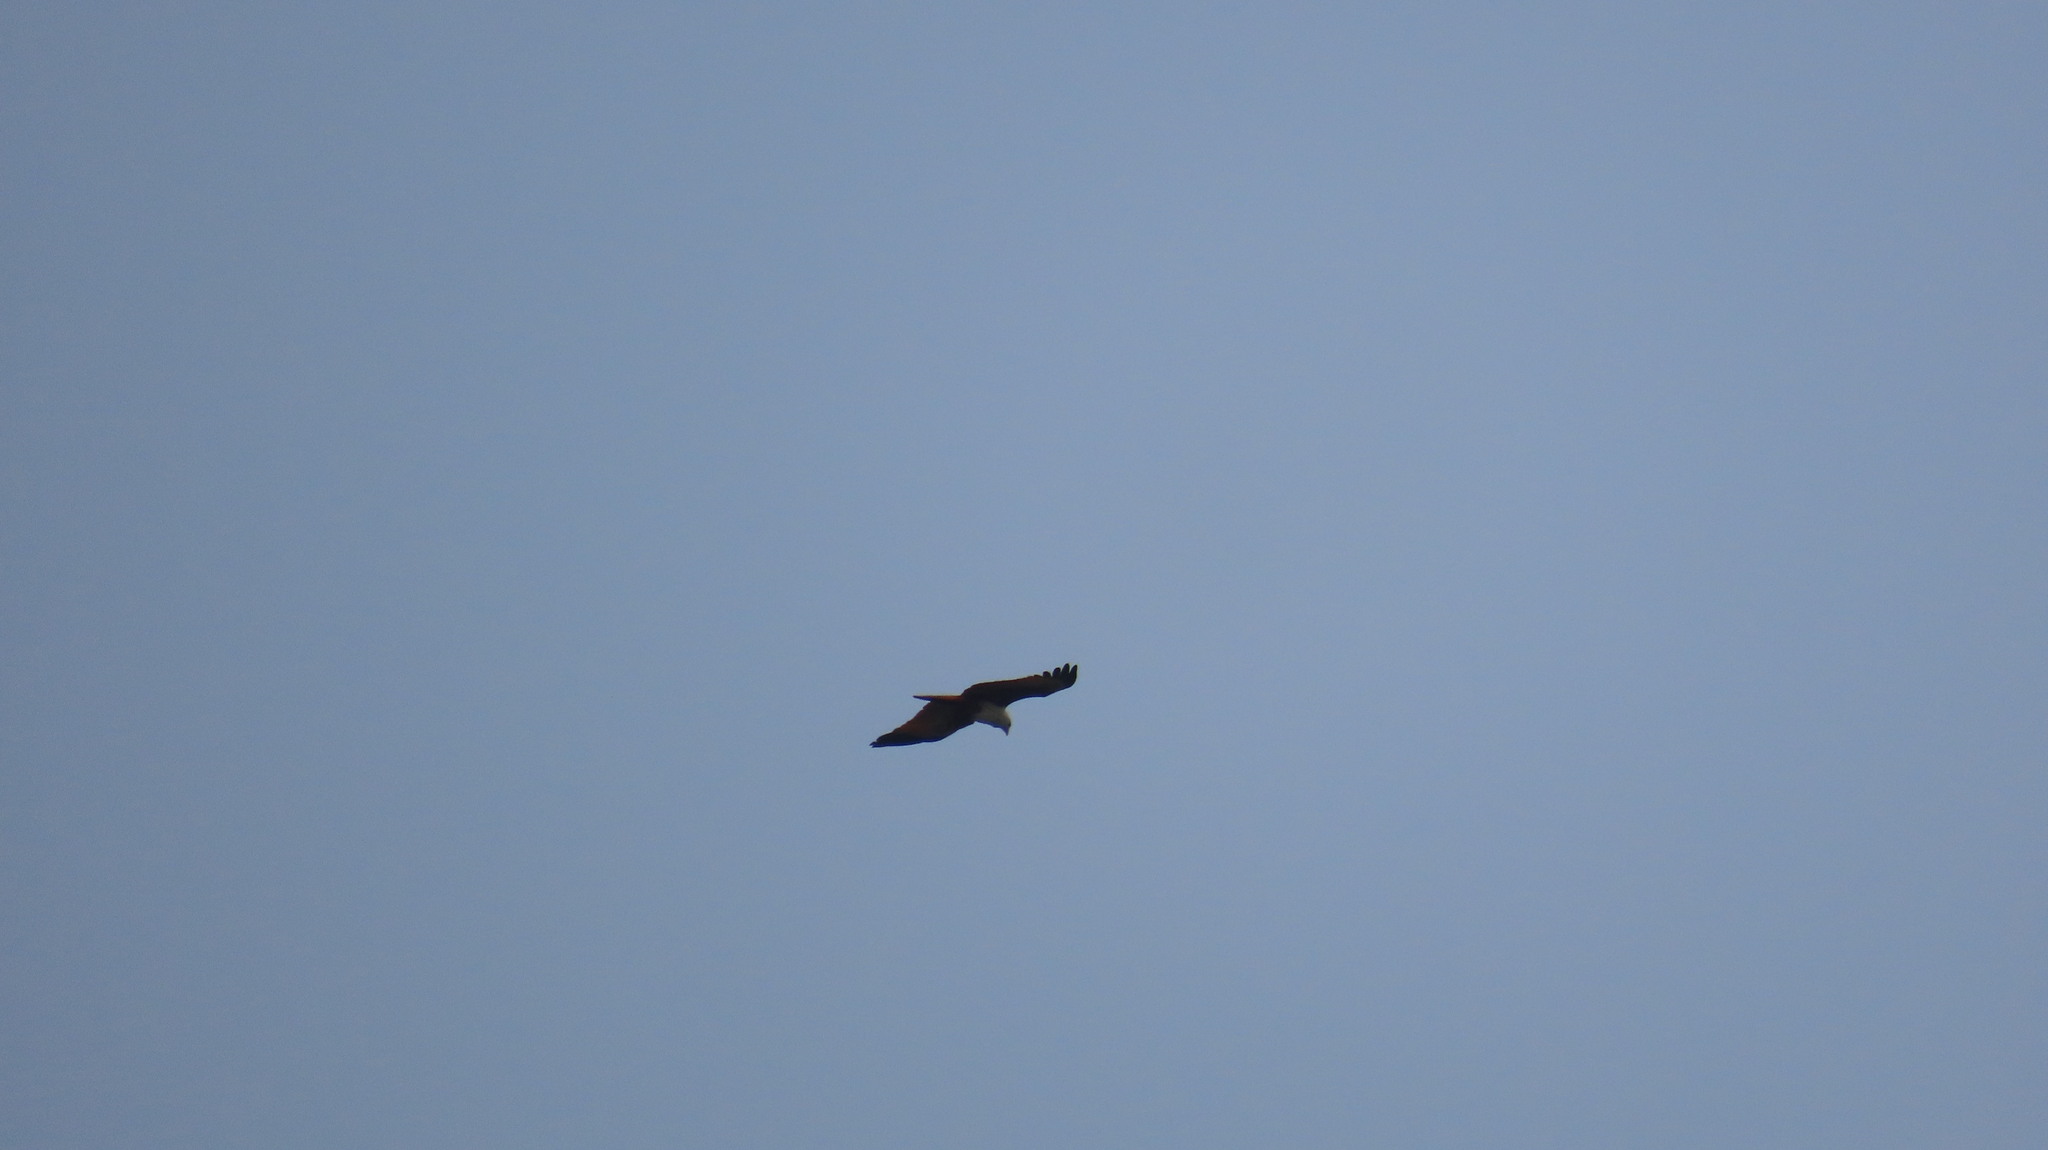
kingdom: Animalia
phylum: Chordata
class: Aves
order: Accipitriformes
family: Accipitridae
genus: Haliastur
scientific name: Haliastur indus
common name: Brahminy kite
